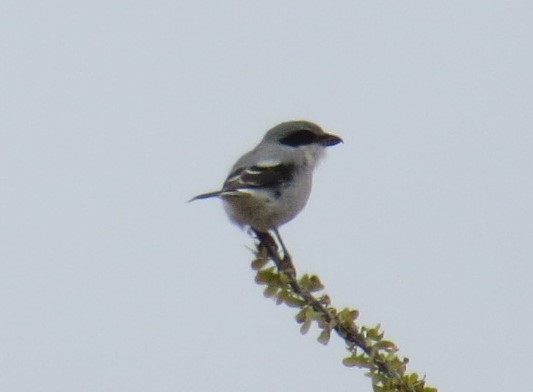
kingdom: Animalia
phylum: Chordata
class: Aves
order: Passeriformes
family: Laniidae
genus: Lanius
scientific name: Lanius ludovicianus
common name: Loggerhead shrike
